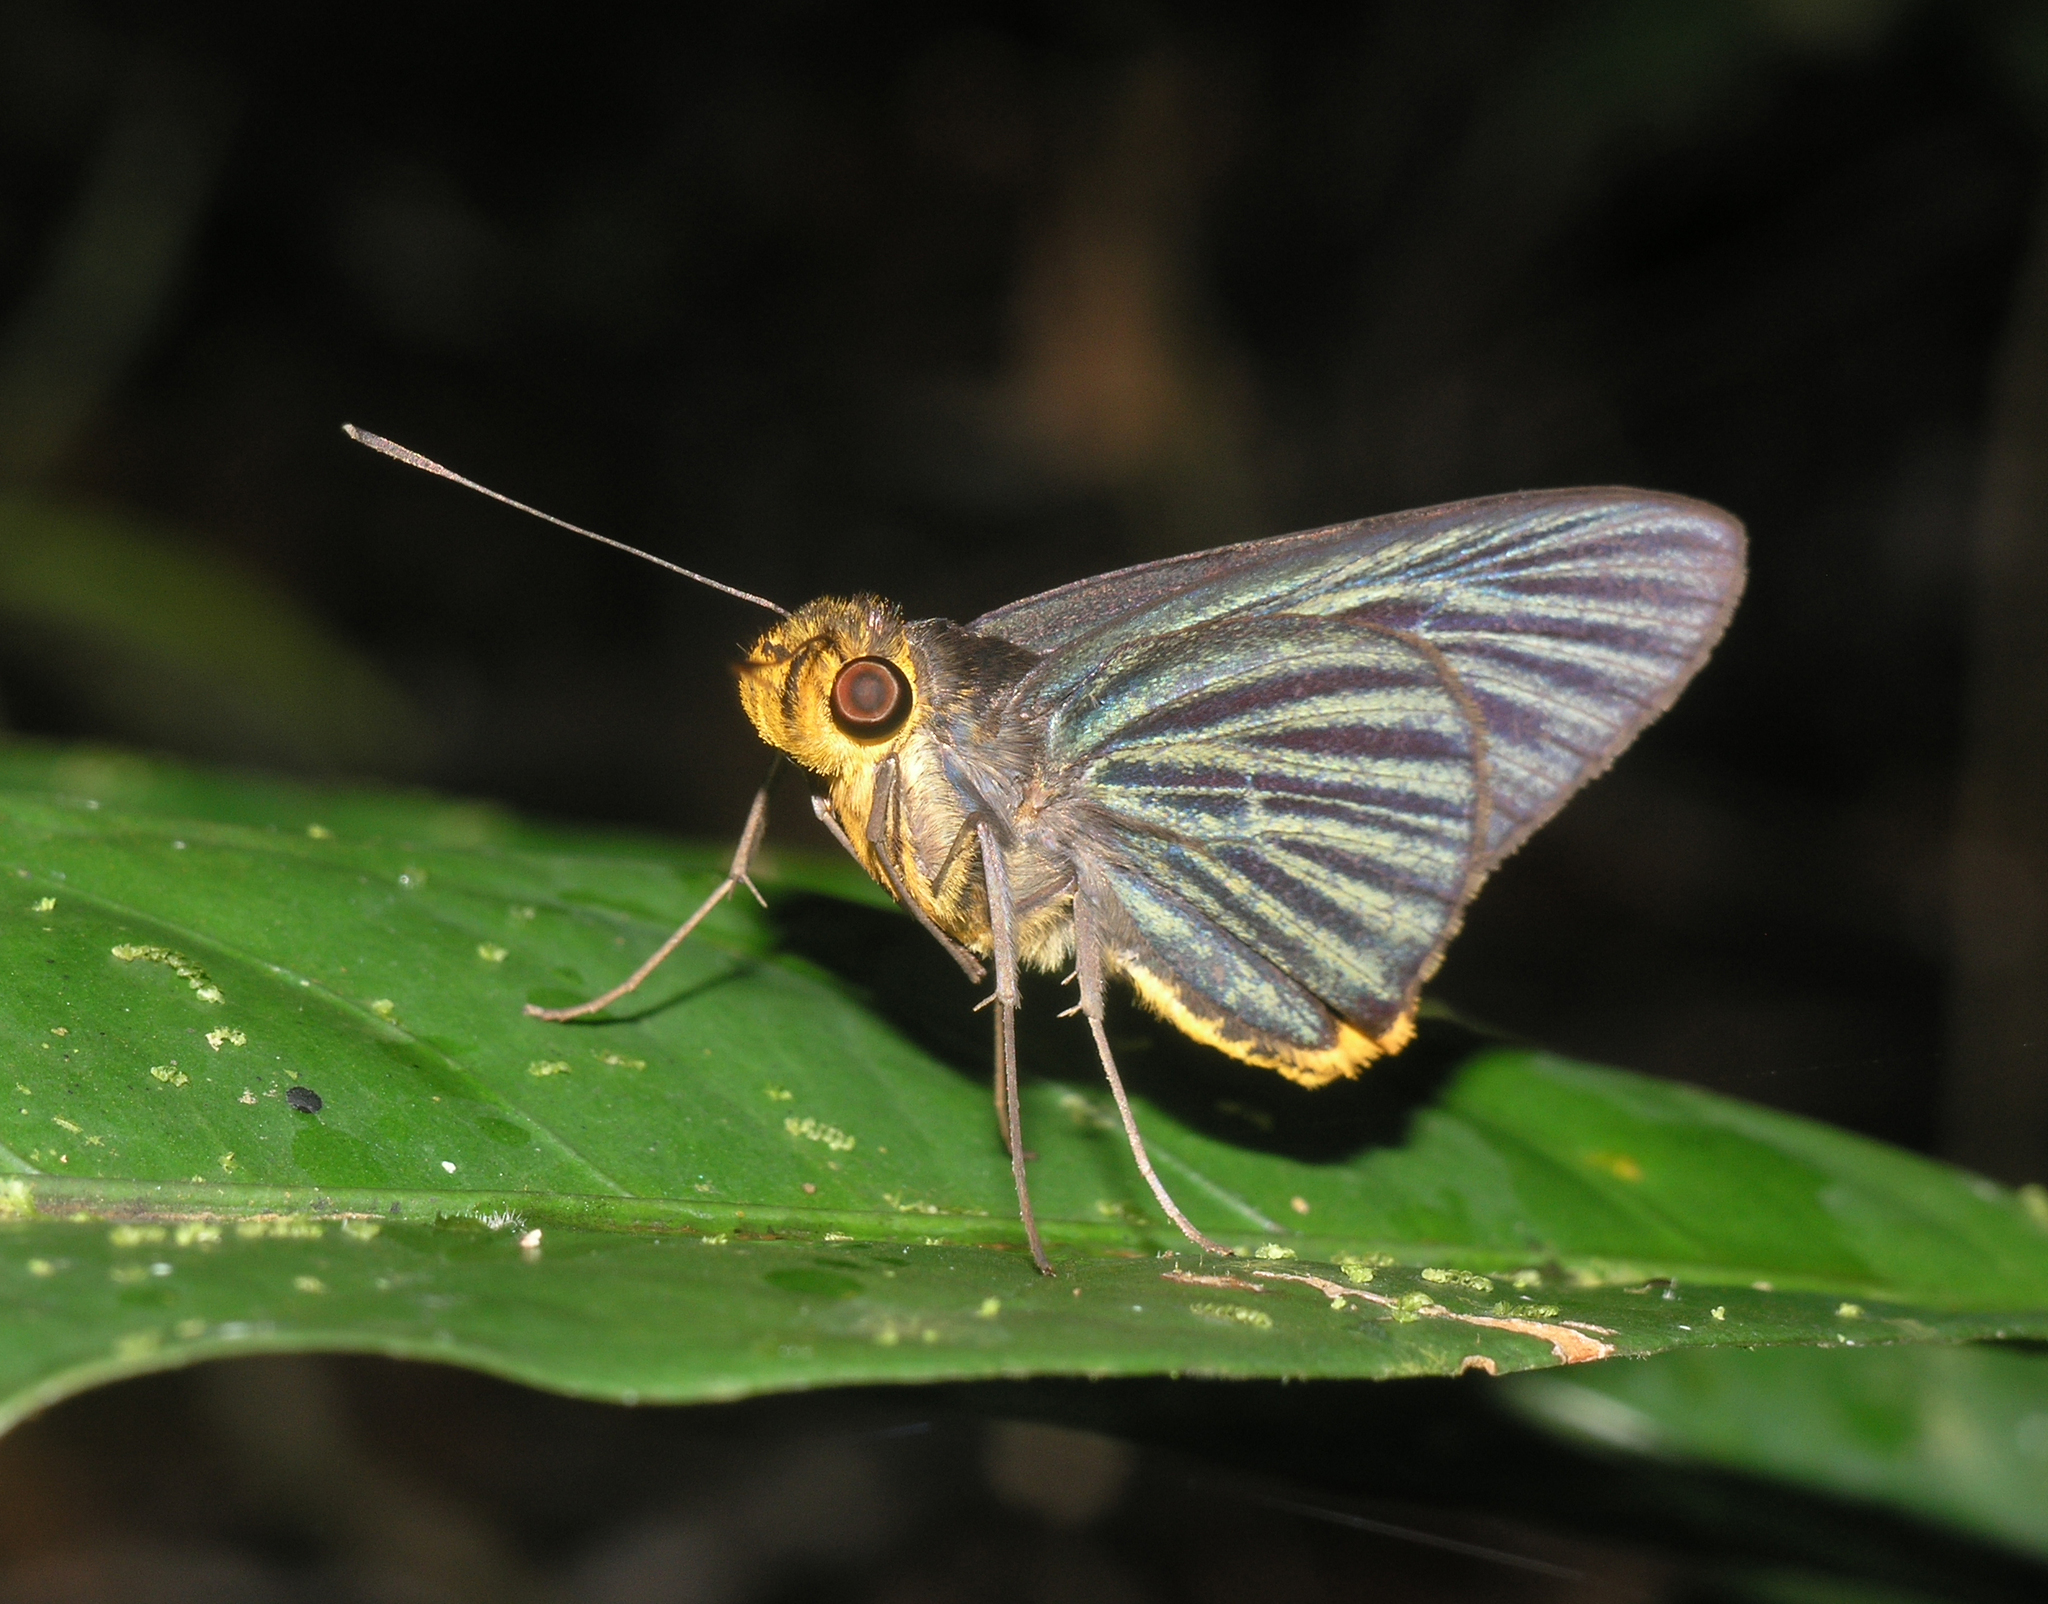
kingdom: Animalia
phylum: Arthropoda
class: Insecta
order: Lepidoptera
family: Hesperiidae
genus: Pirdana
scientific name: Pirdana hyela
